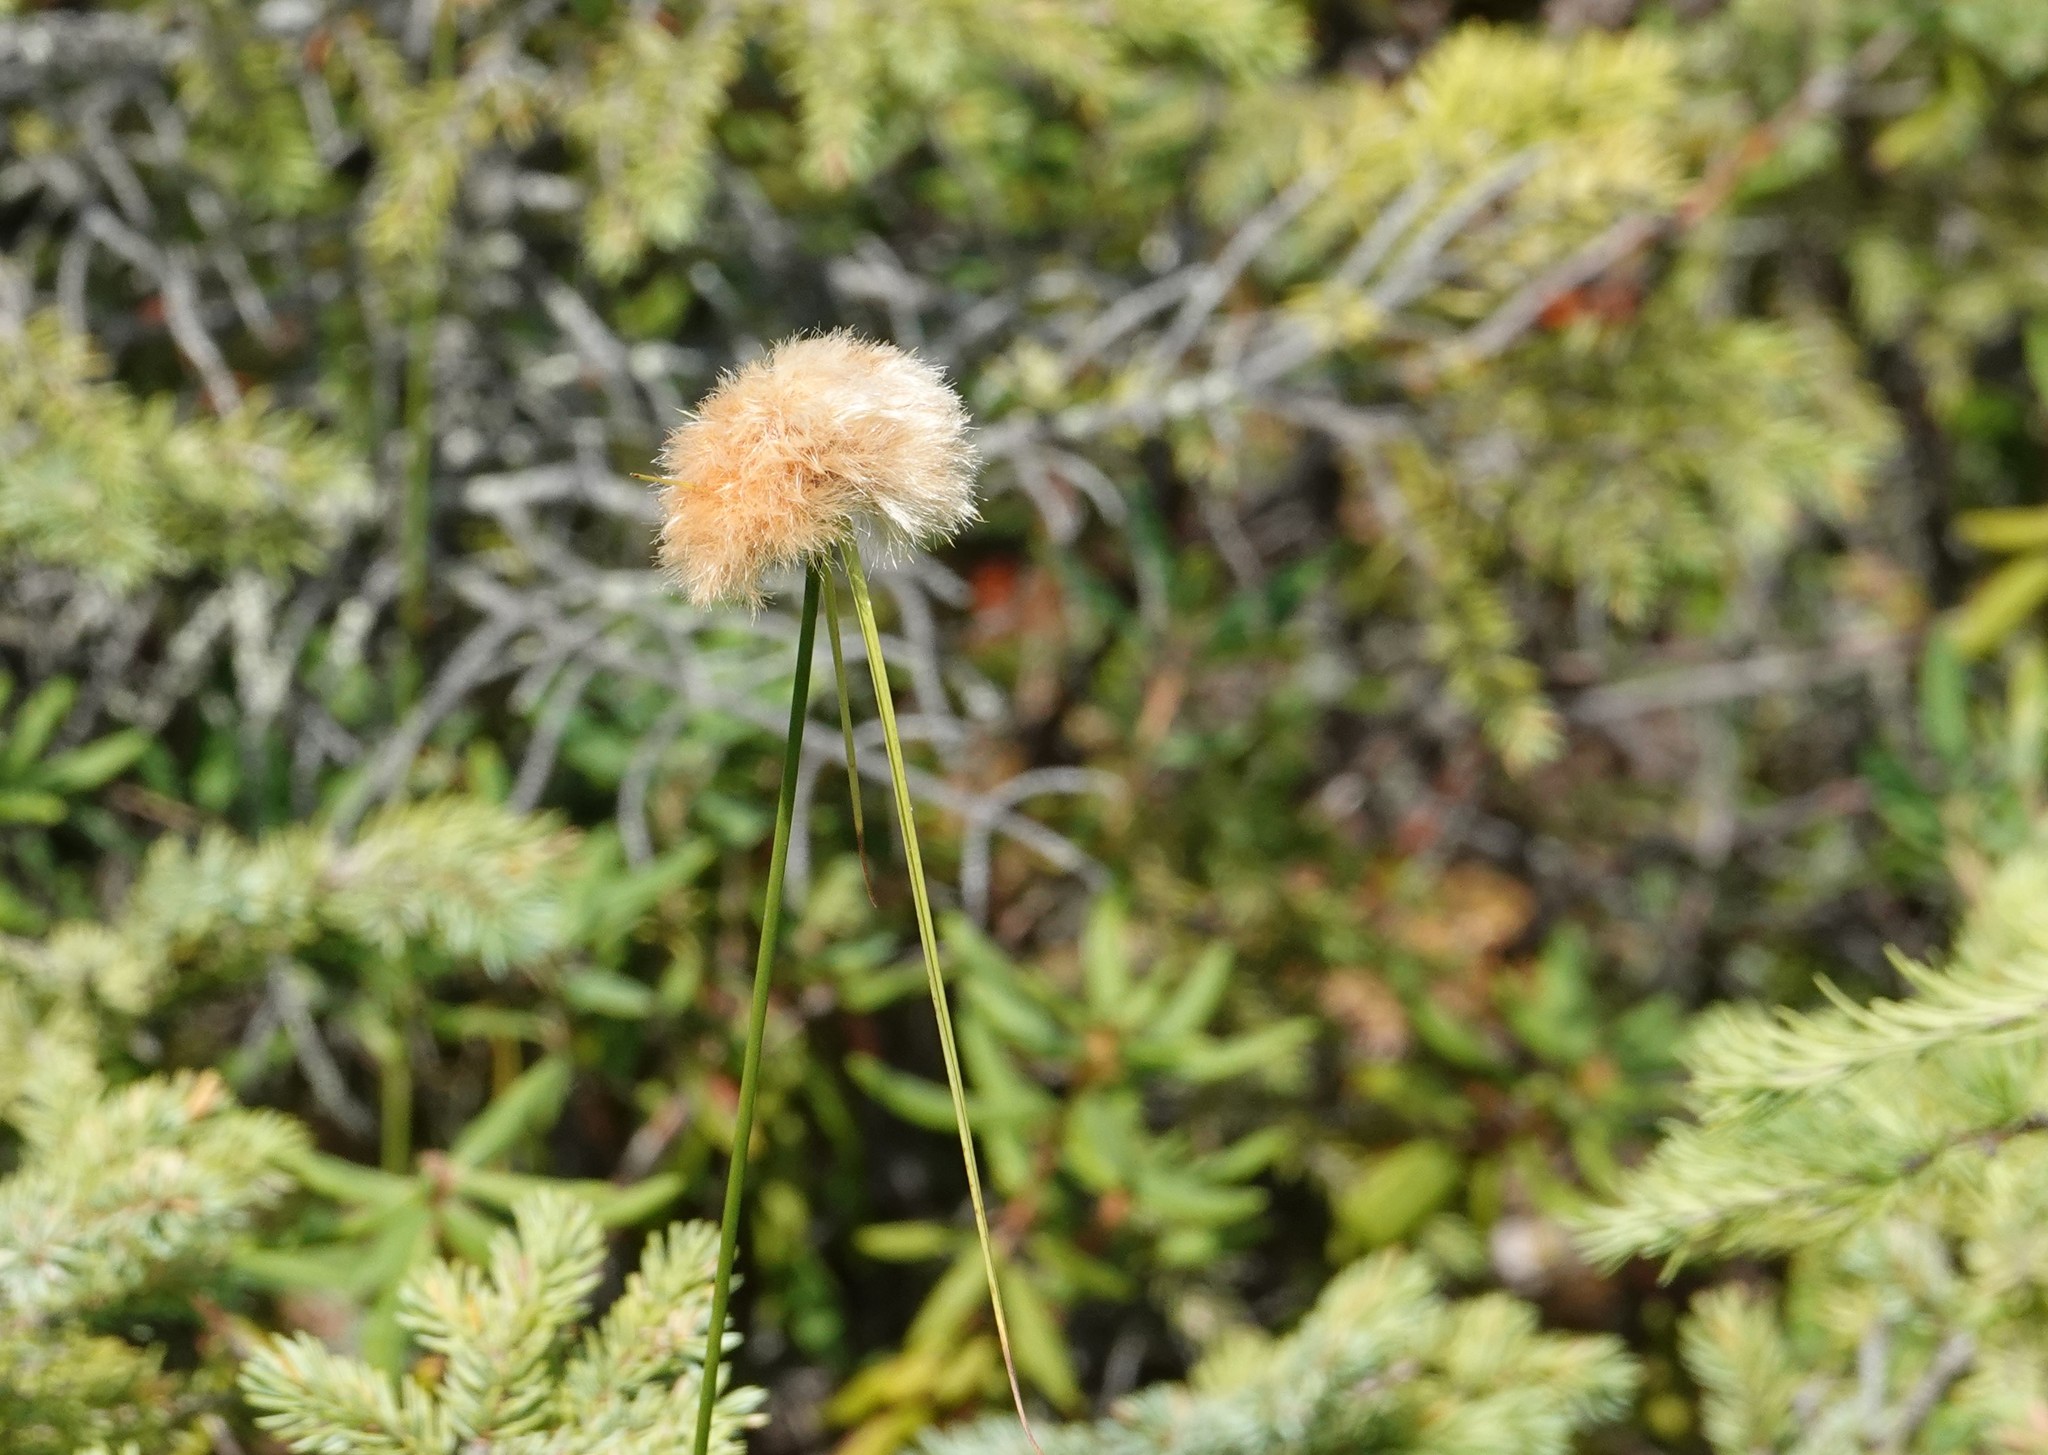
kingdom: Plantae
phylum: Tracheophyta
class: Liliopsida
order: Poales
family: Cyperaceae
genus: Eriophorum
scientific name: Eriophorum virginicum
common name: Tawny cottongrass
